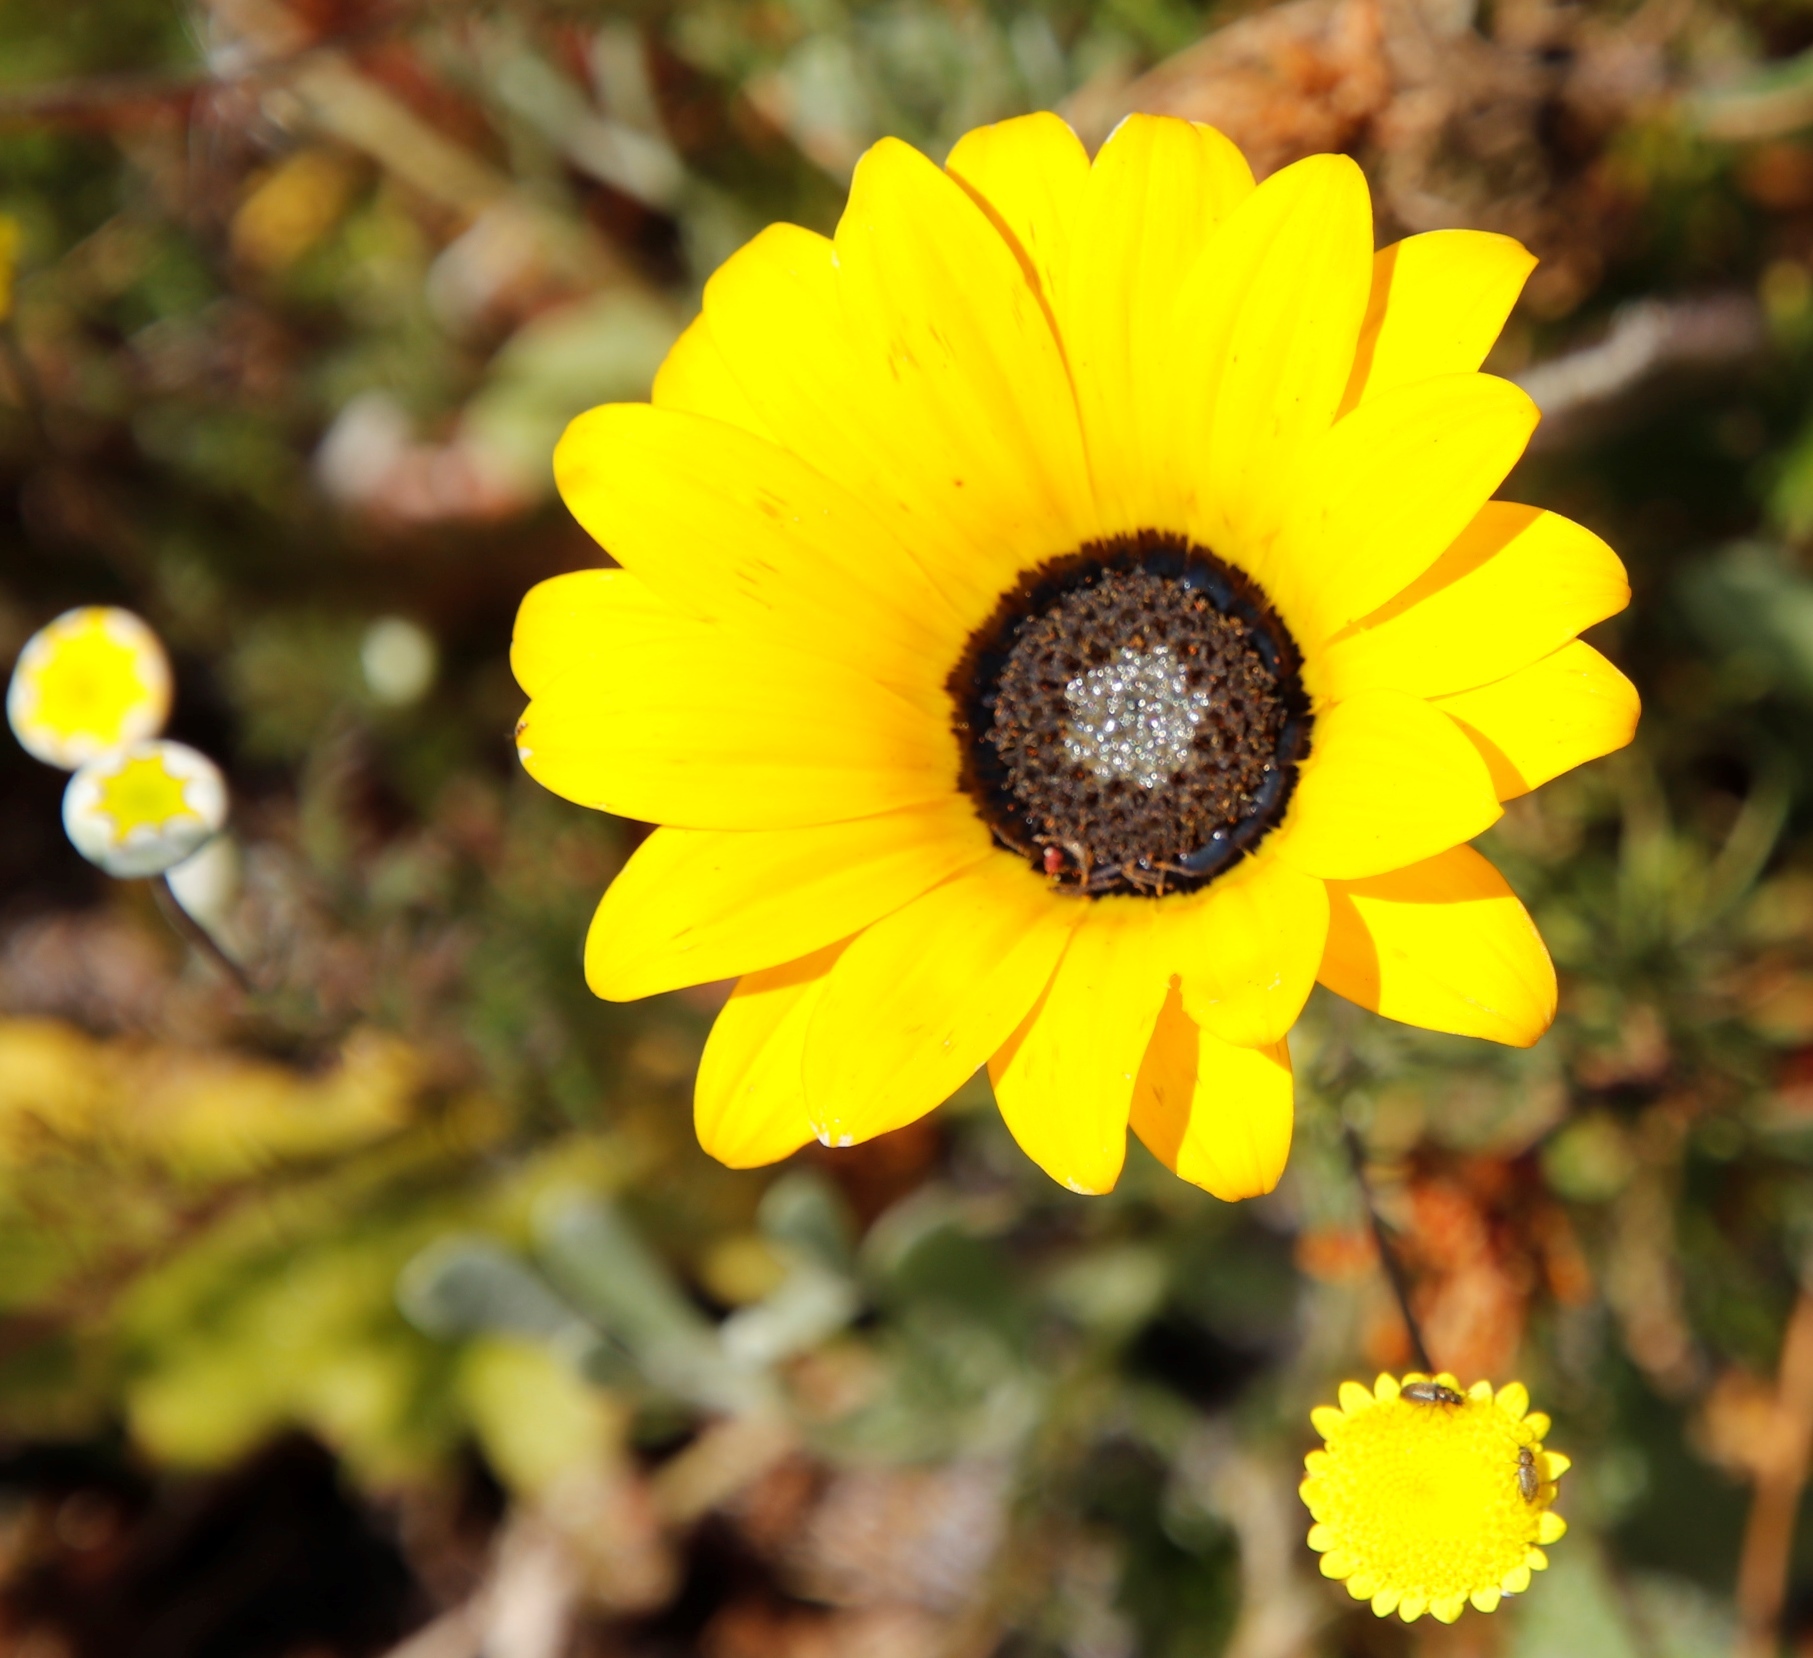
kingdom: Plantae
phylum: Tracheophyta
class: Magnoliopsida
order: Asterales
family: Asteraceae
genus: Arctotis
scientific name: Arctotis breviscapa
